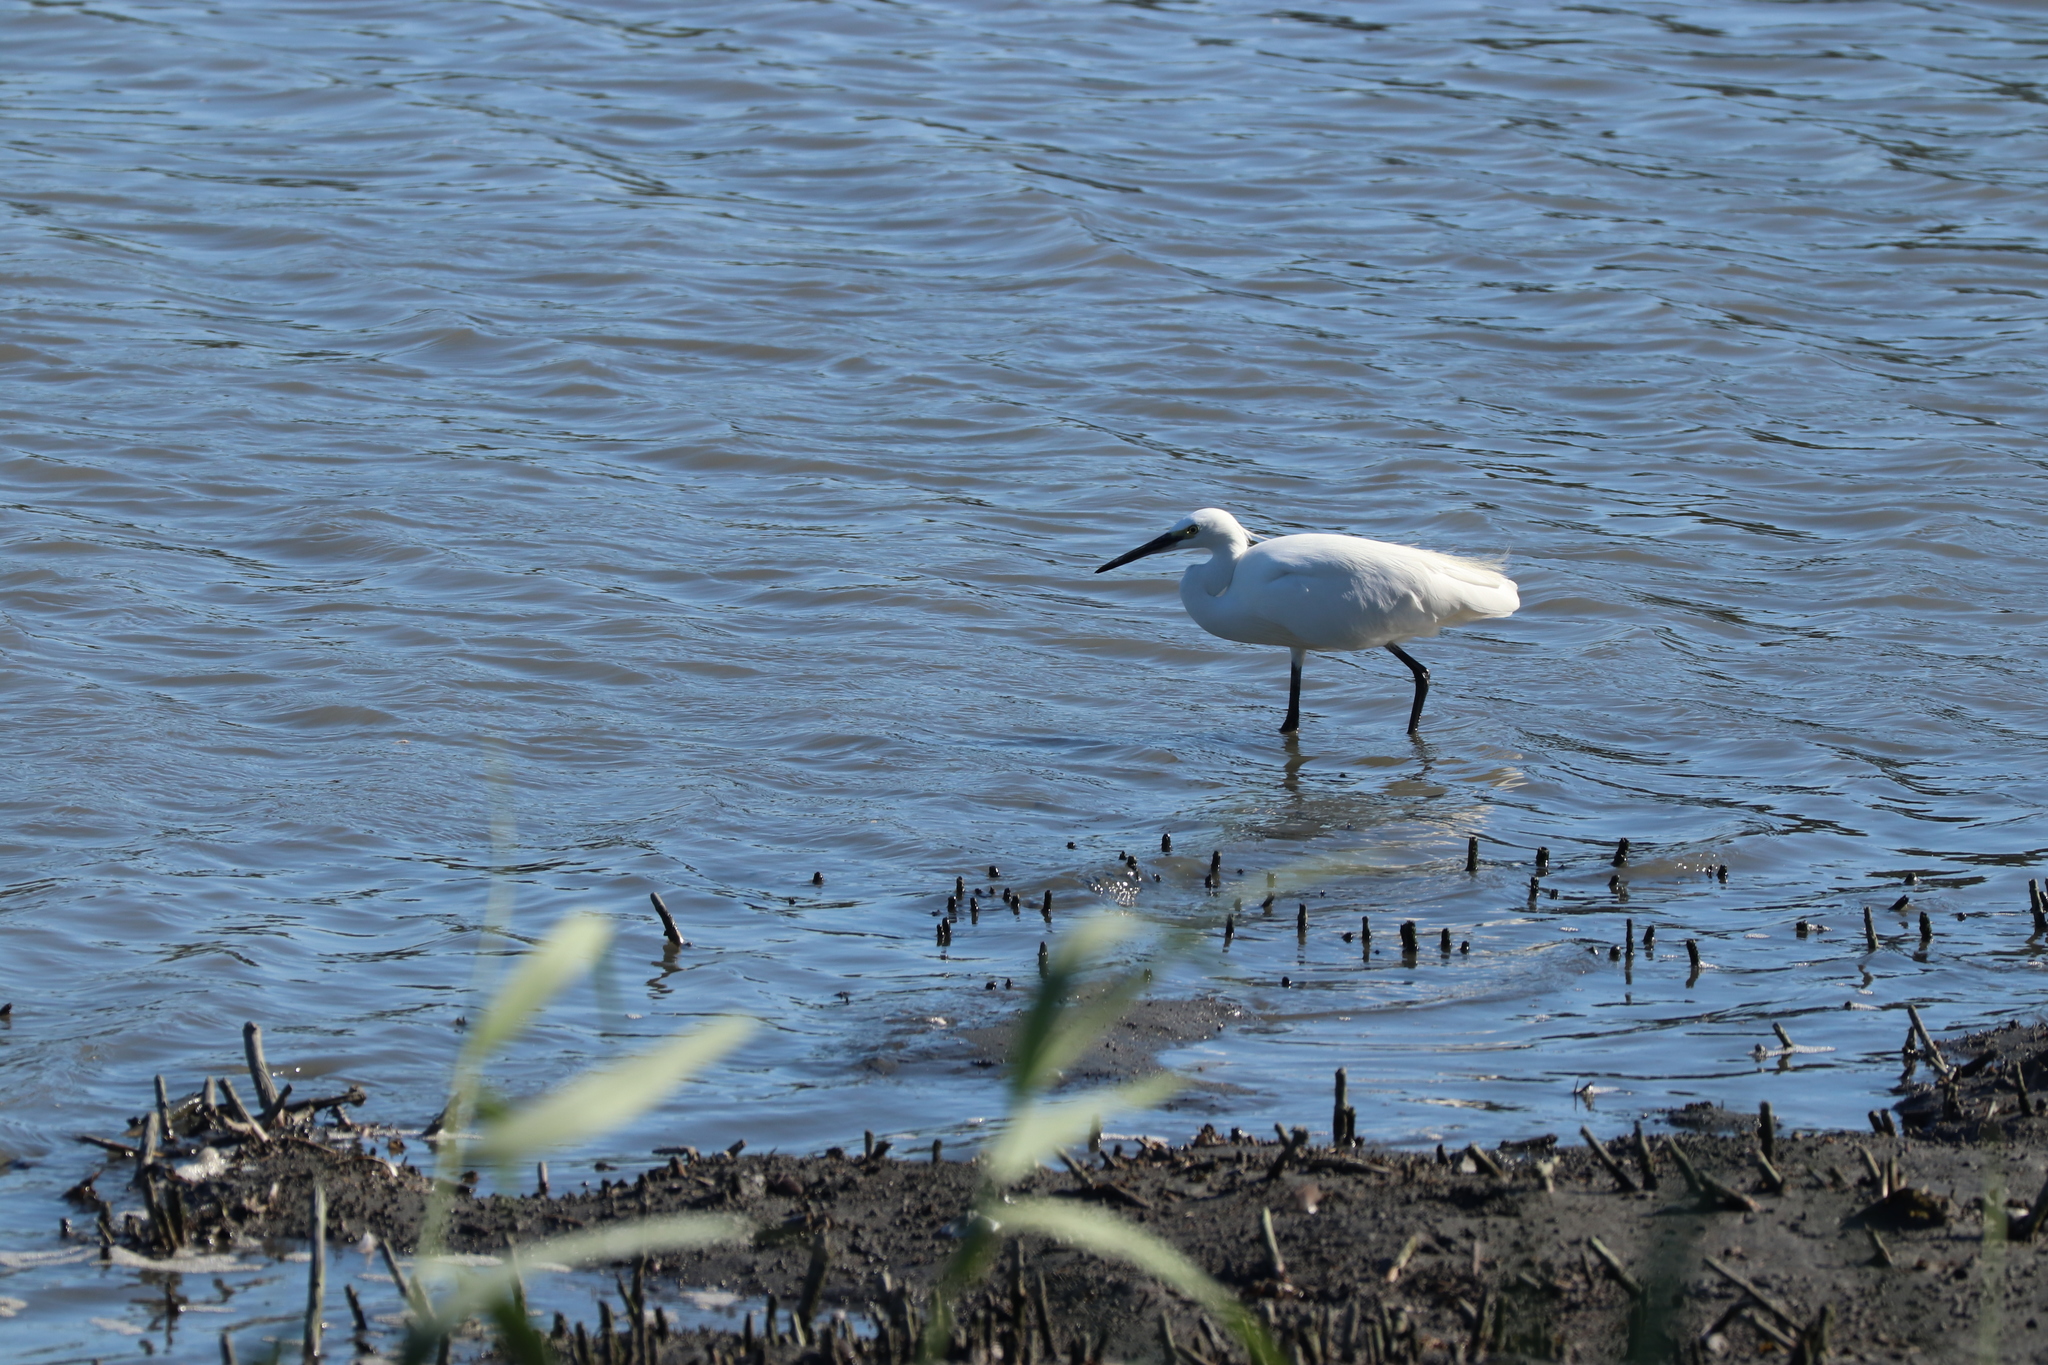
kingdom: Animalia
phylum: Chordata
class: Aves
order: Pelecaniformes
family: Ardeidae
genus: Egretta
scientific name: Egretta garzetta
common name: Little egret
